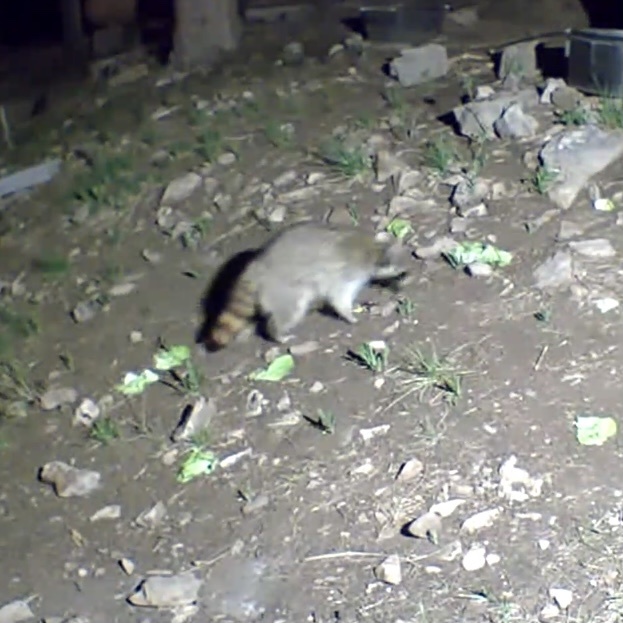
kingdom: Animalia
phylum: Chordata
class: Mammalia
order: Carnivora
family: Procyonidae
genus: Procyon
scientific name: Procyon lotor
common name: Raccoon
